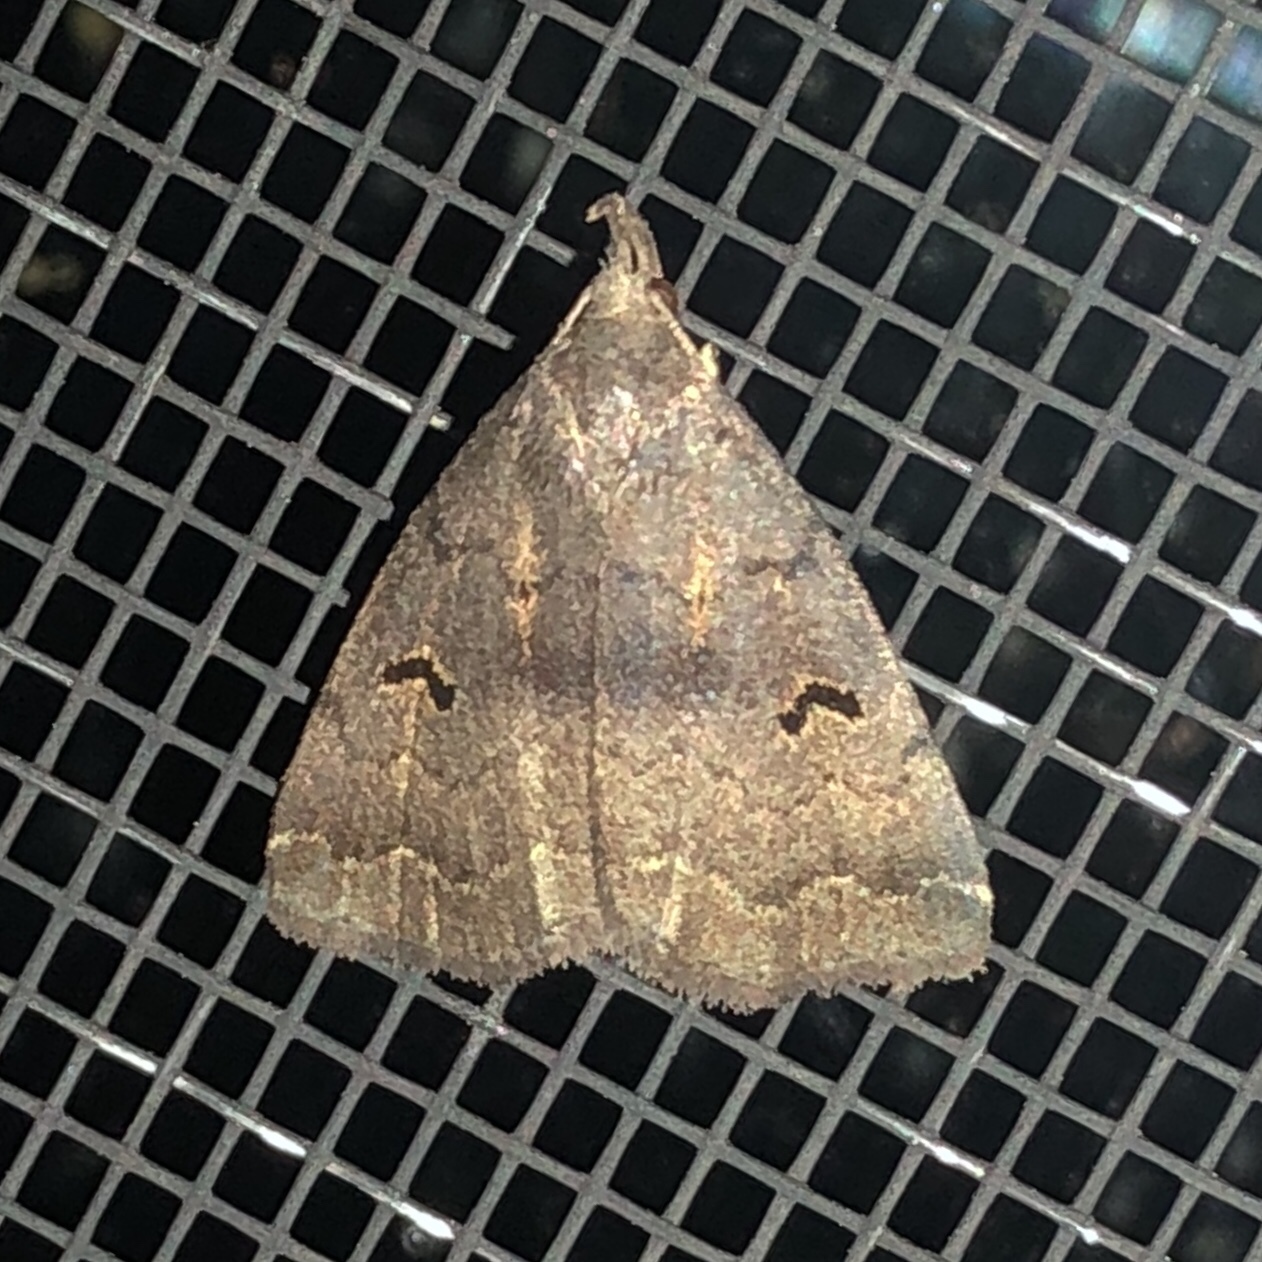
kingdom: Animalia
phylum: Arthropoda
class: Insecta
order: Lepidoptera
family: Erebidae
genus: Phalaenostola
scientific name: Phalaenostola hanhami
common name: Hanham's owlet
